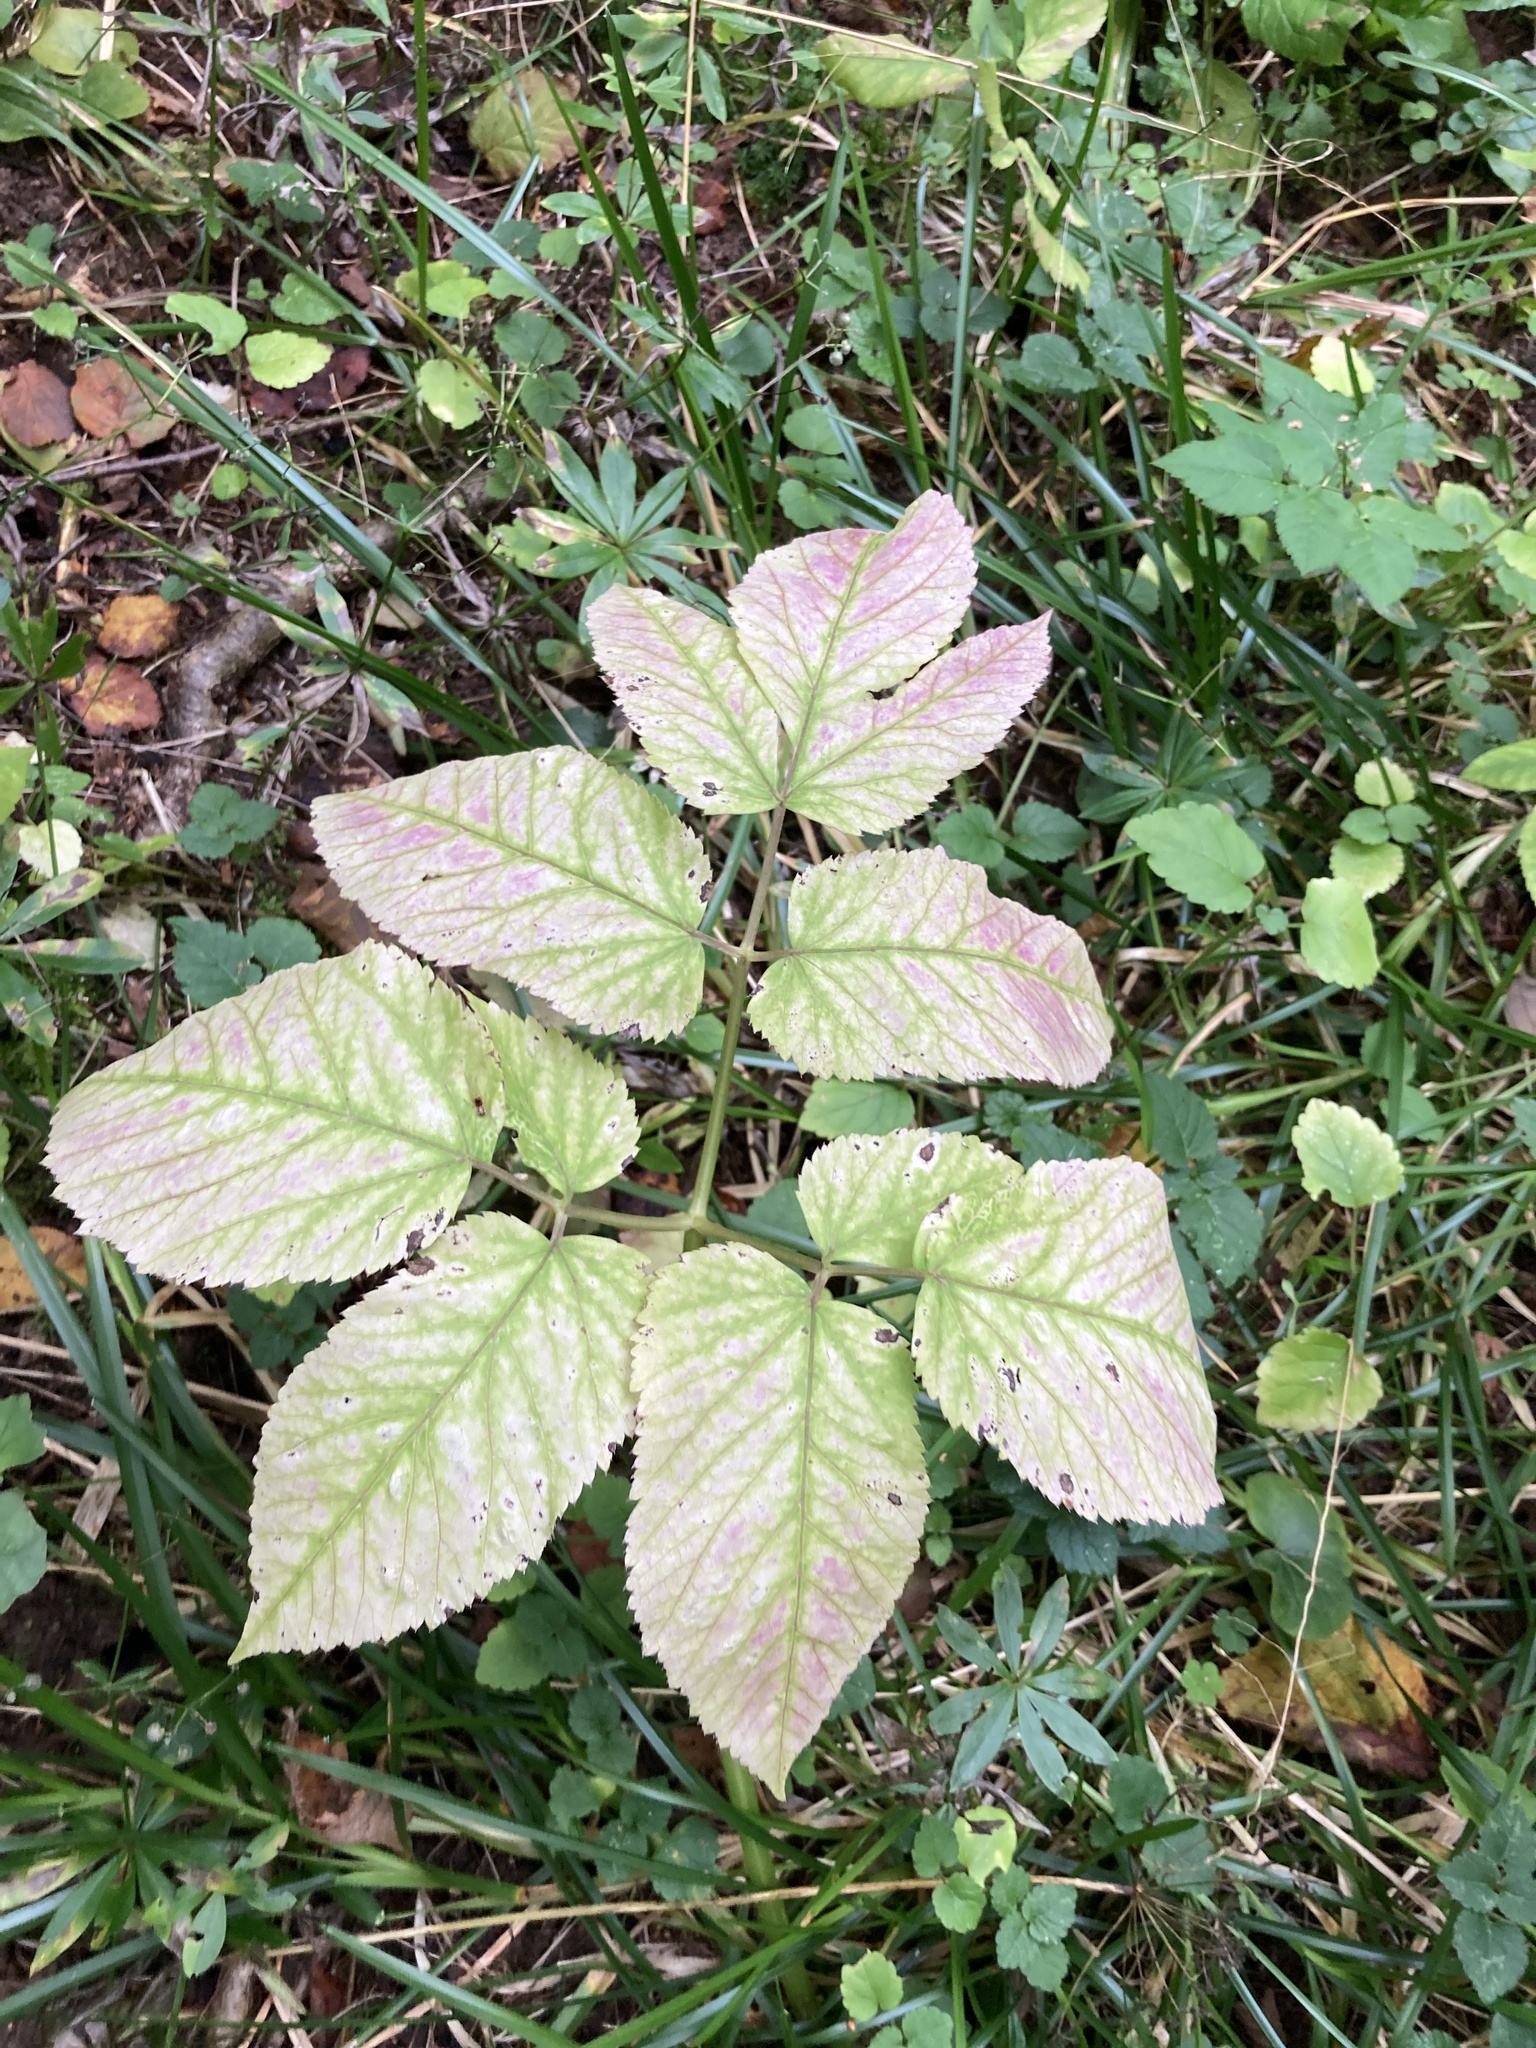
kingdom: Plantae
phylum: Tracheophyta
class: Magnoliopsida
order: Apiales
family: Apiaceae
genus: Aegopodium
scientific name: Aegopodium podagraria
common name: Ground-elder
